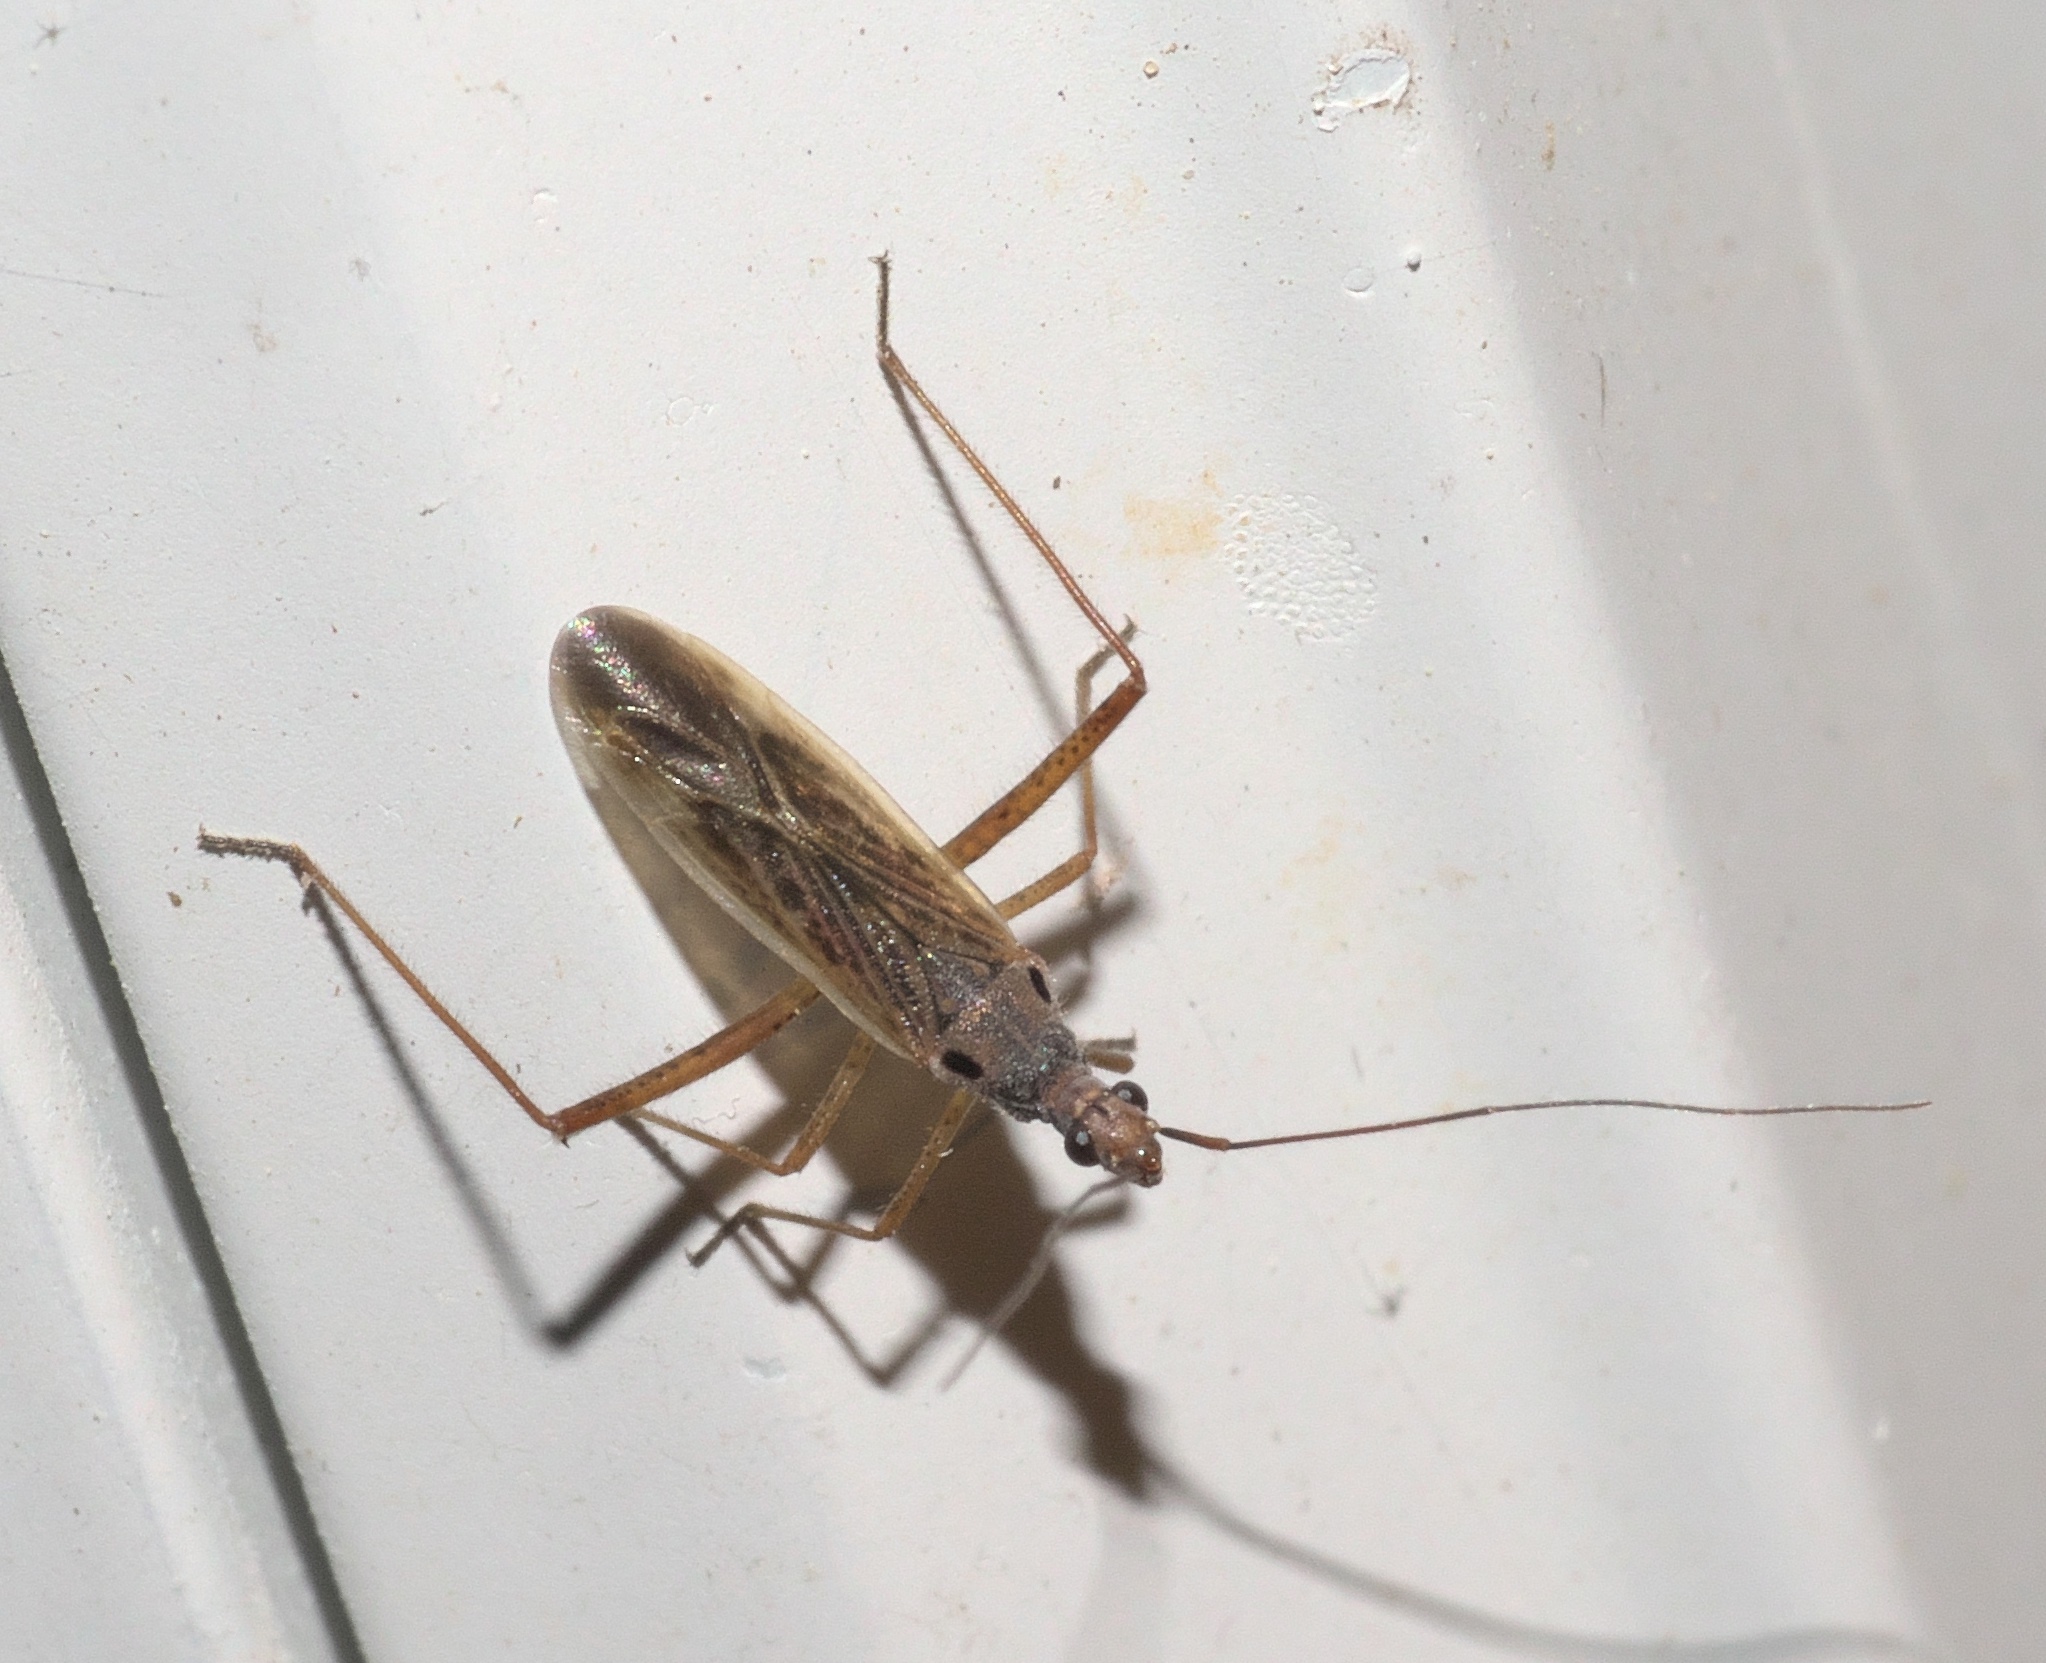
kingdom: Animalia
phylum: Arthropoda
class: Insecta
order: Hemiptera
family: Miridae
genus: Collaria
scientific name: Collaria oculata
